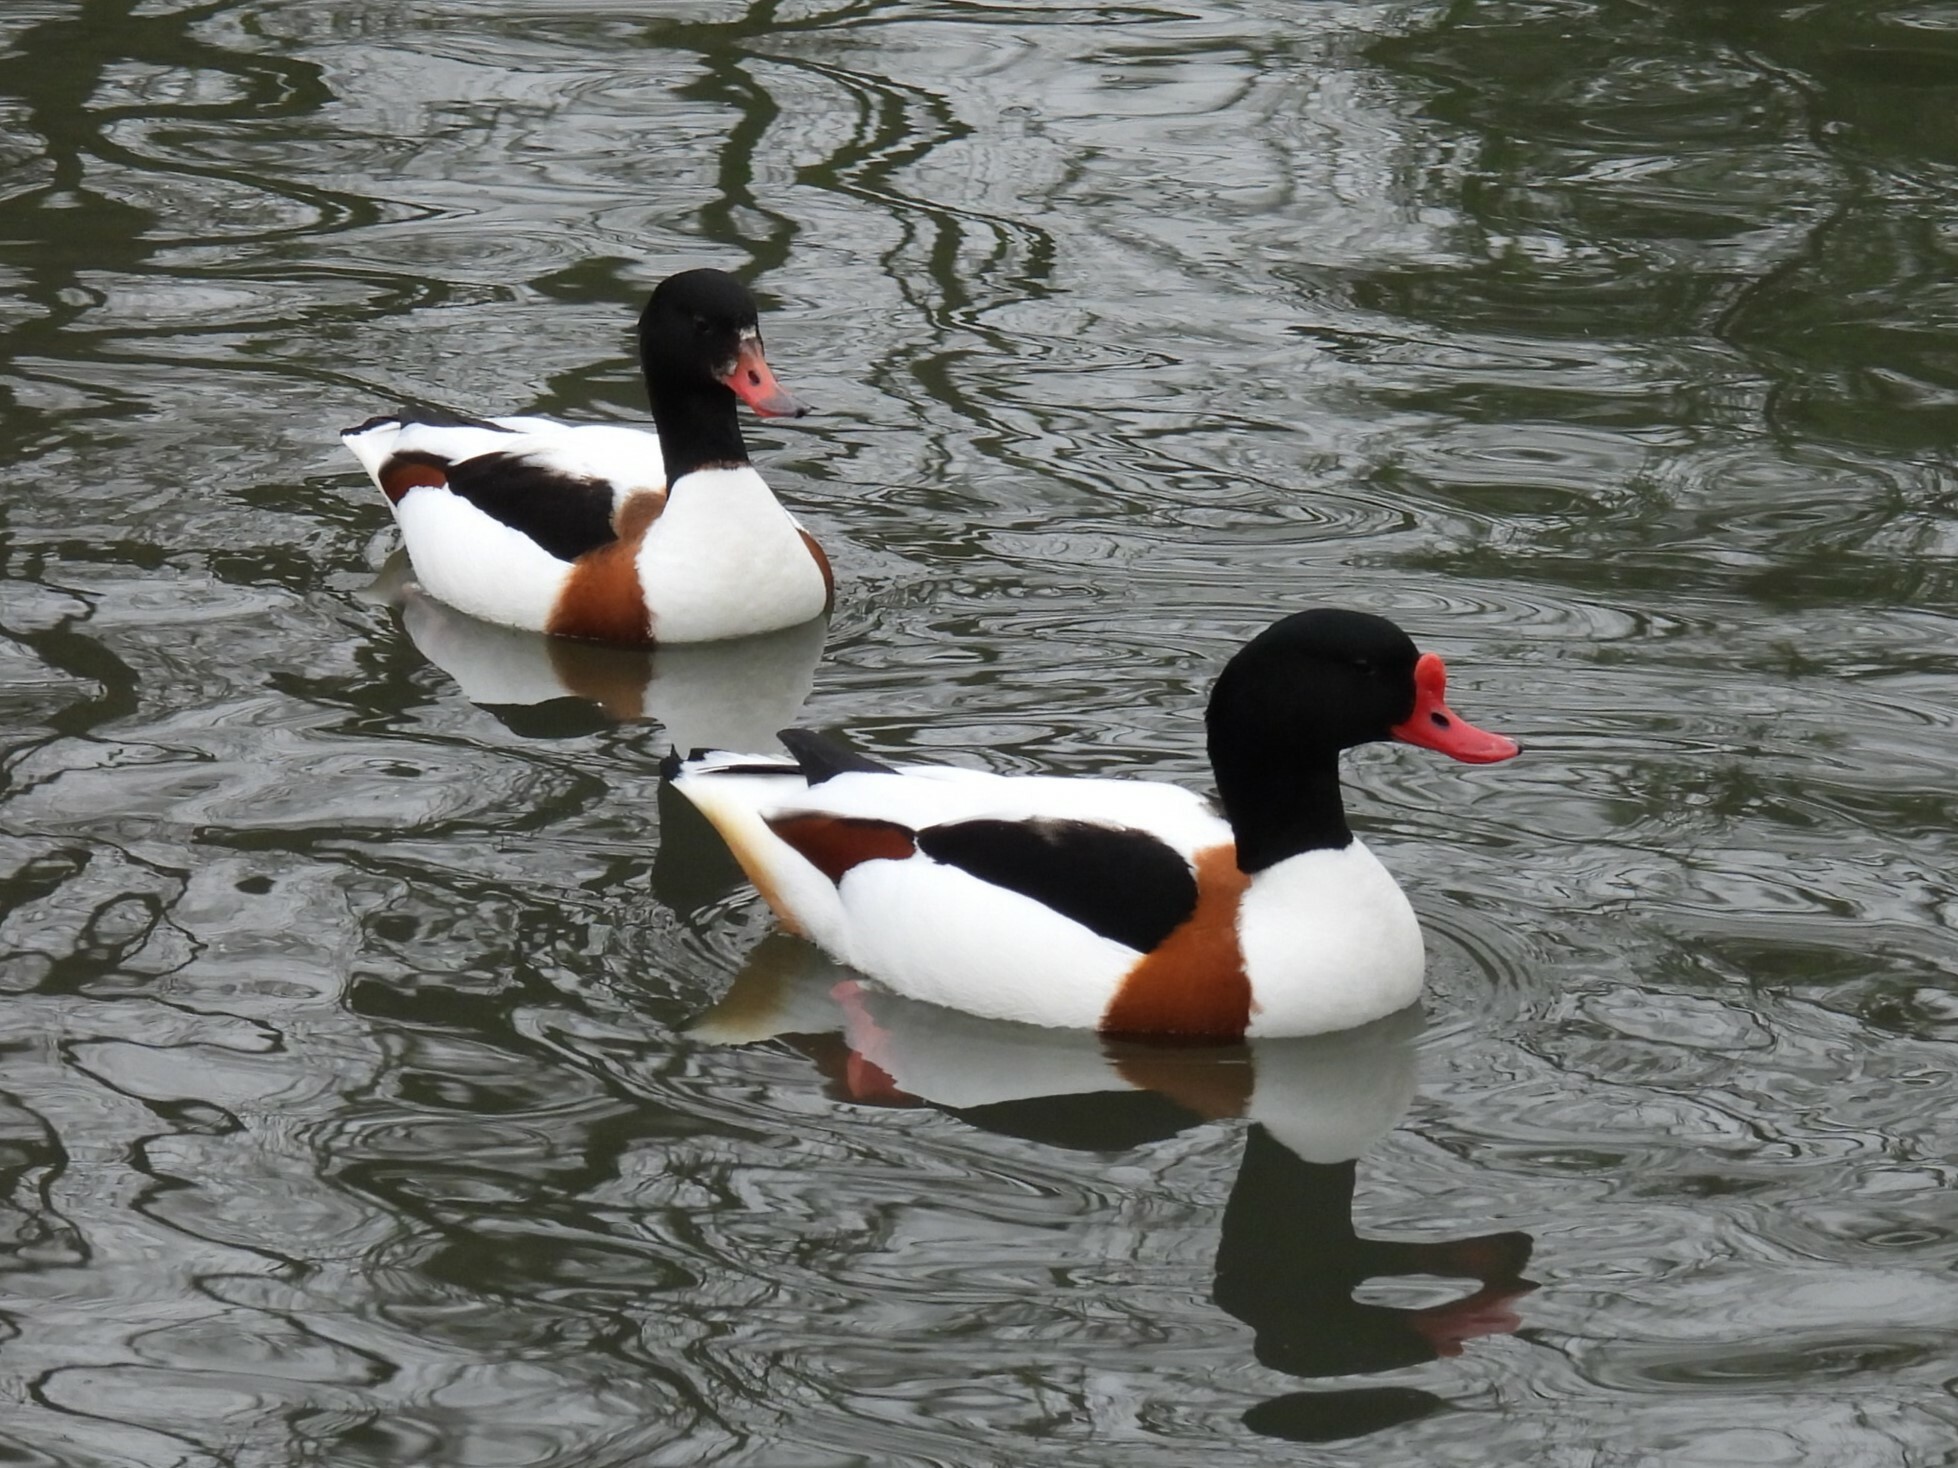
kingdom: Animalia
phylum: Chordata
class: Aves
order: Anseriformes
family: Anatidae
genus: Tadorna
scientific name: Tadorna tadorna
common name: Common shelduck
